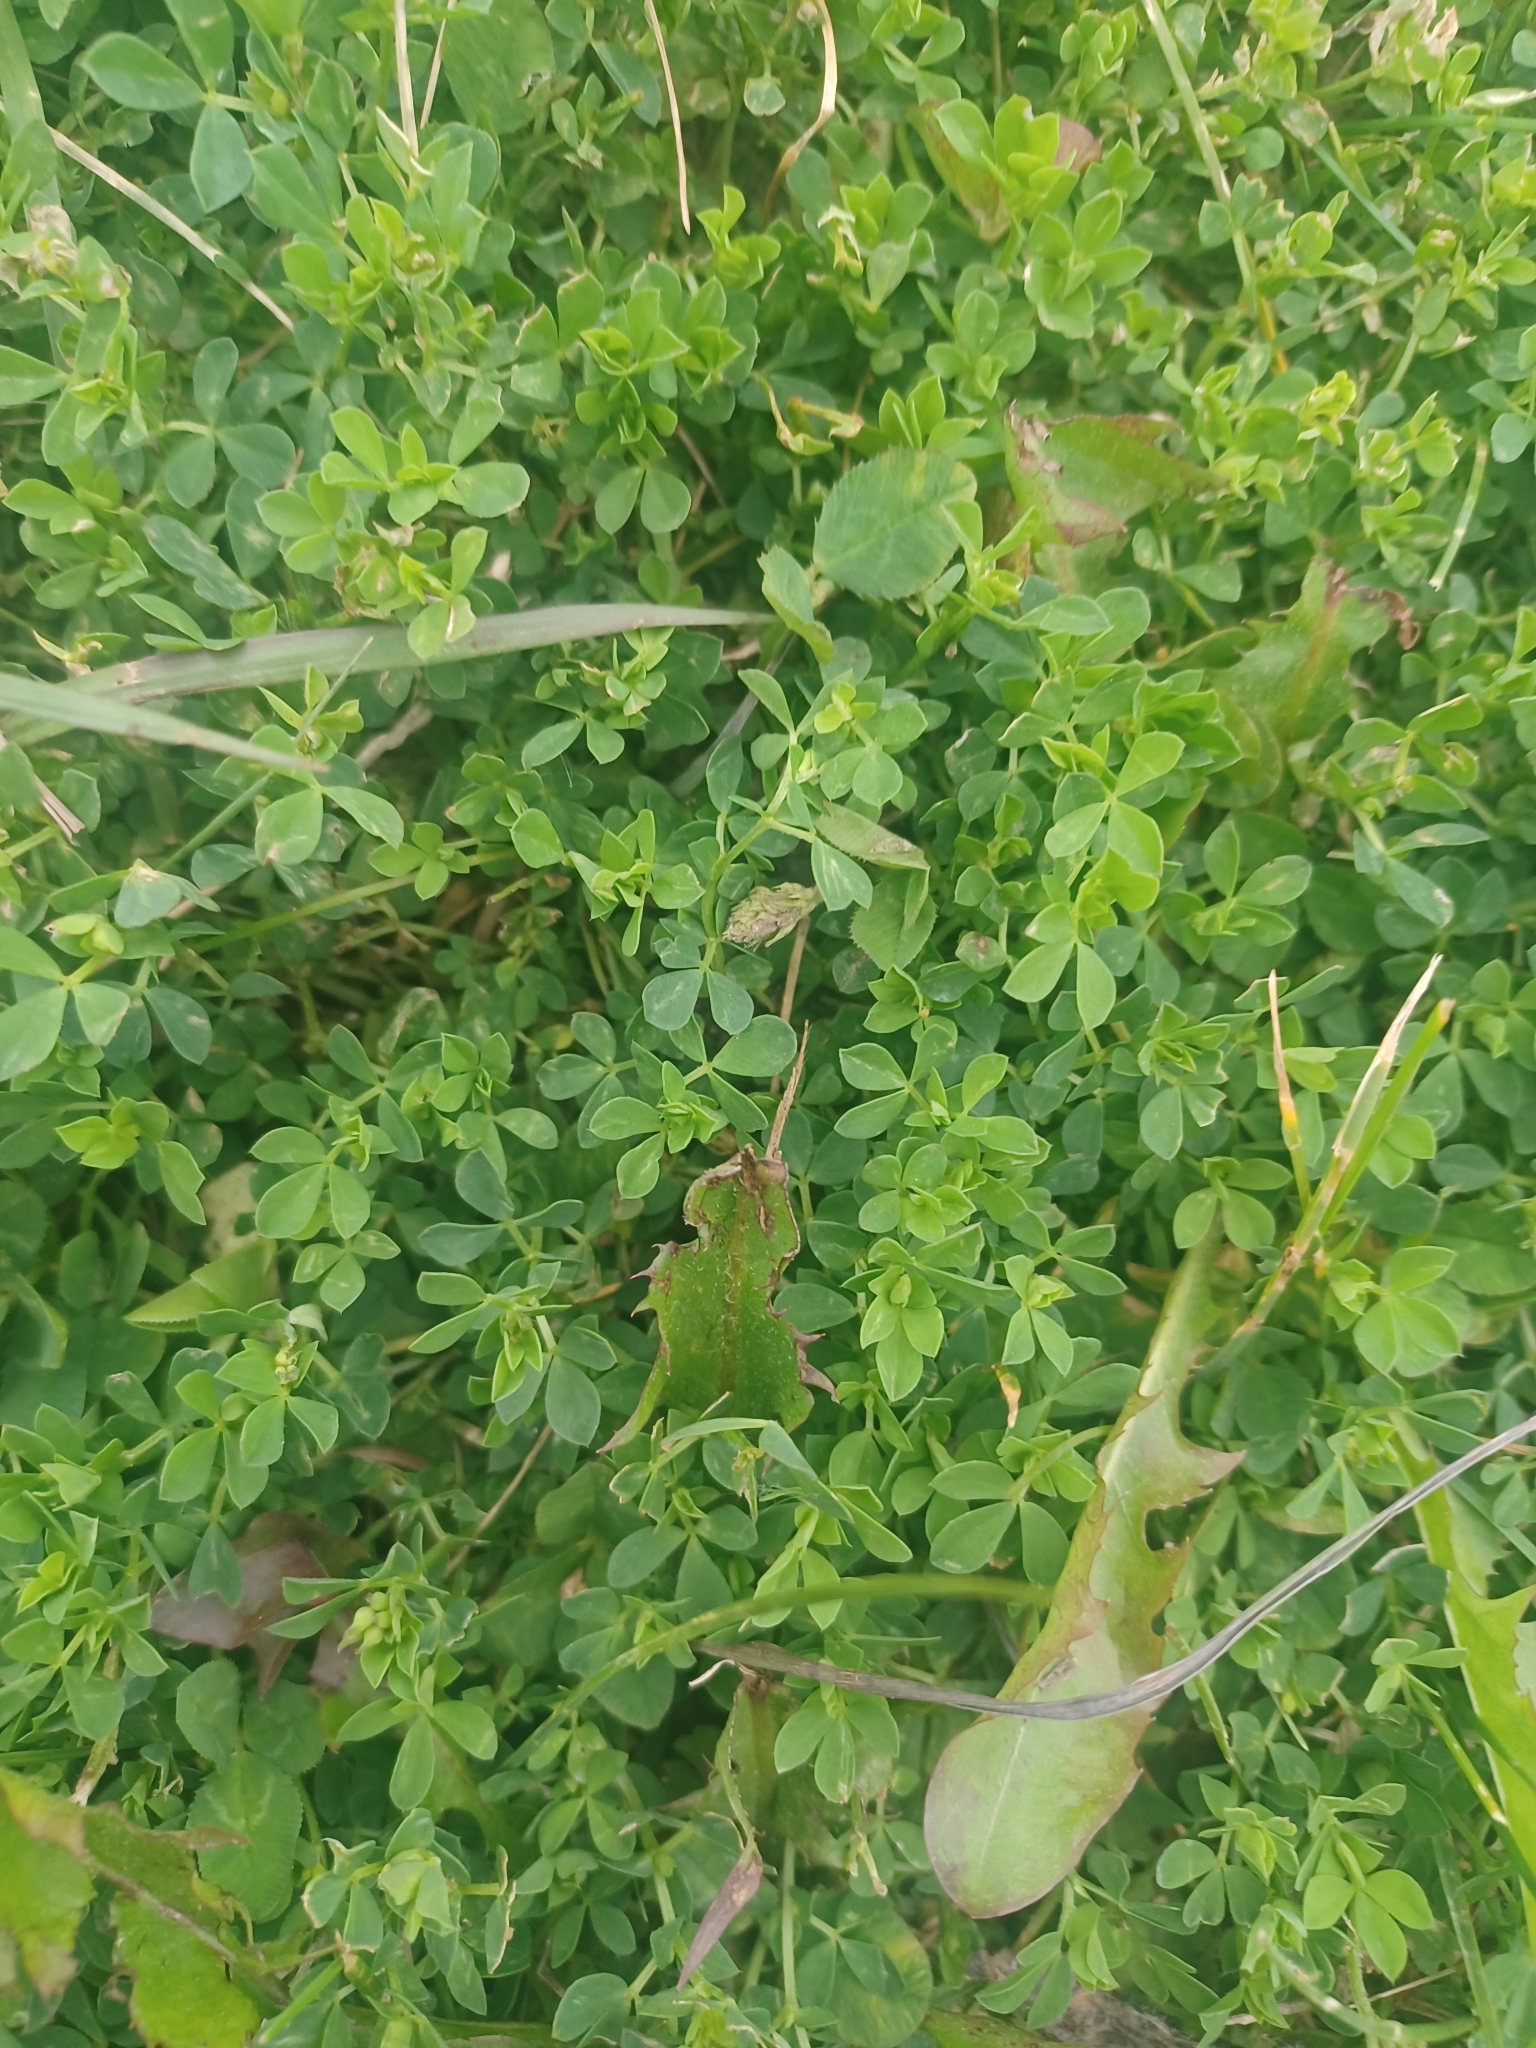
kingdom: Plantae
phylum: Tracheophyta
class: Magnoliopsida
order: Fabales
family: Fabaceae
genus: Lotus
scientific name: Lotus corniculatus
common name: Common bird's-foot-trefoil
